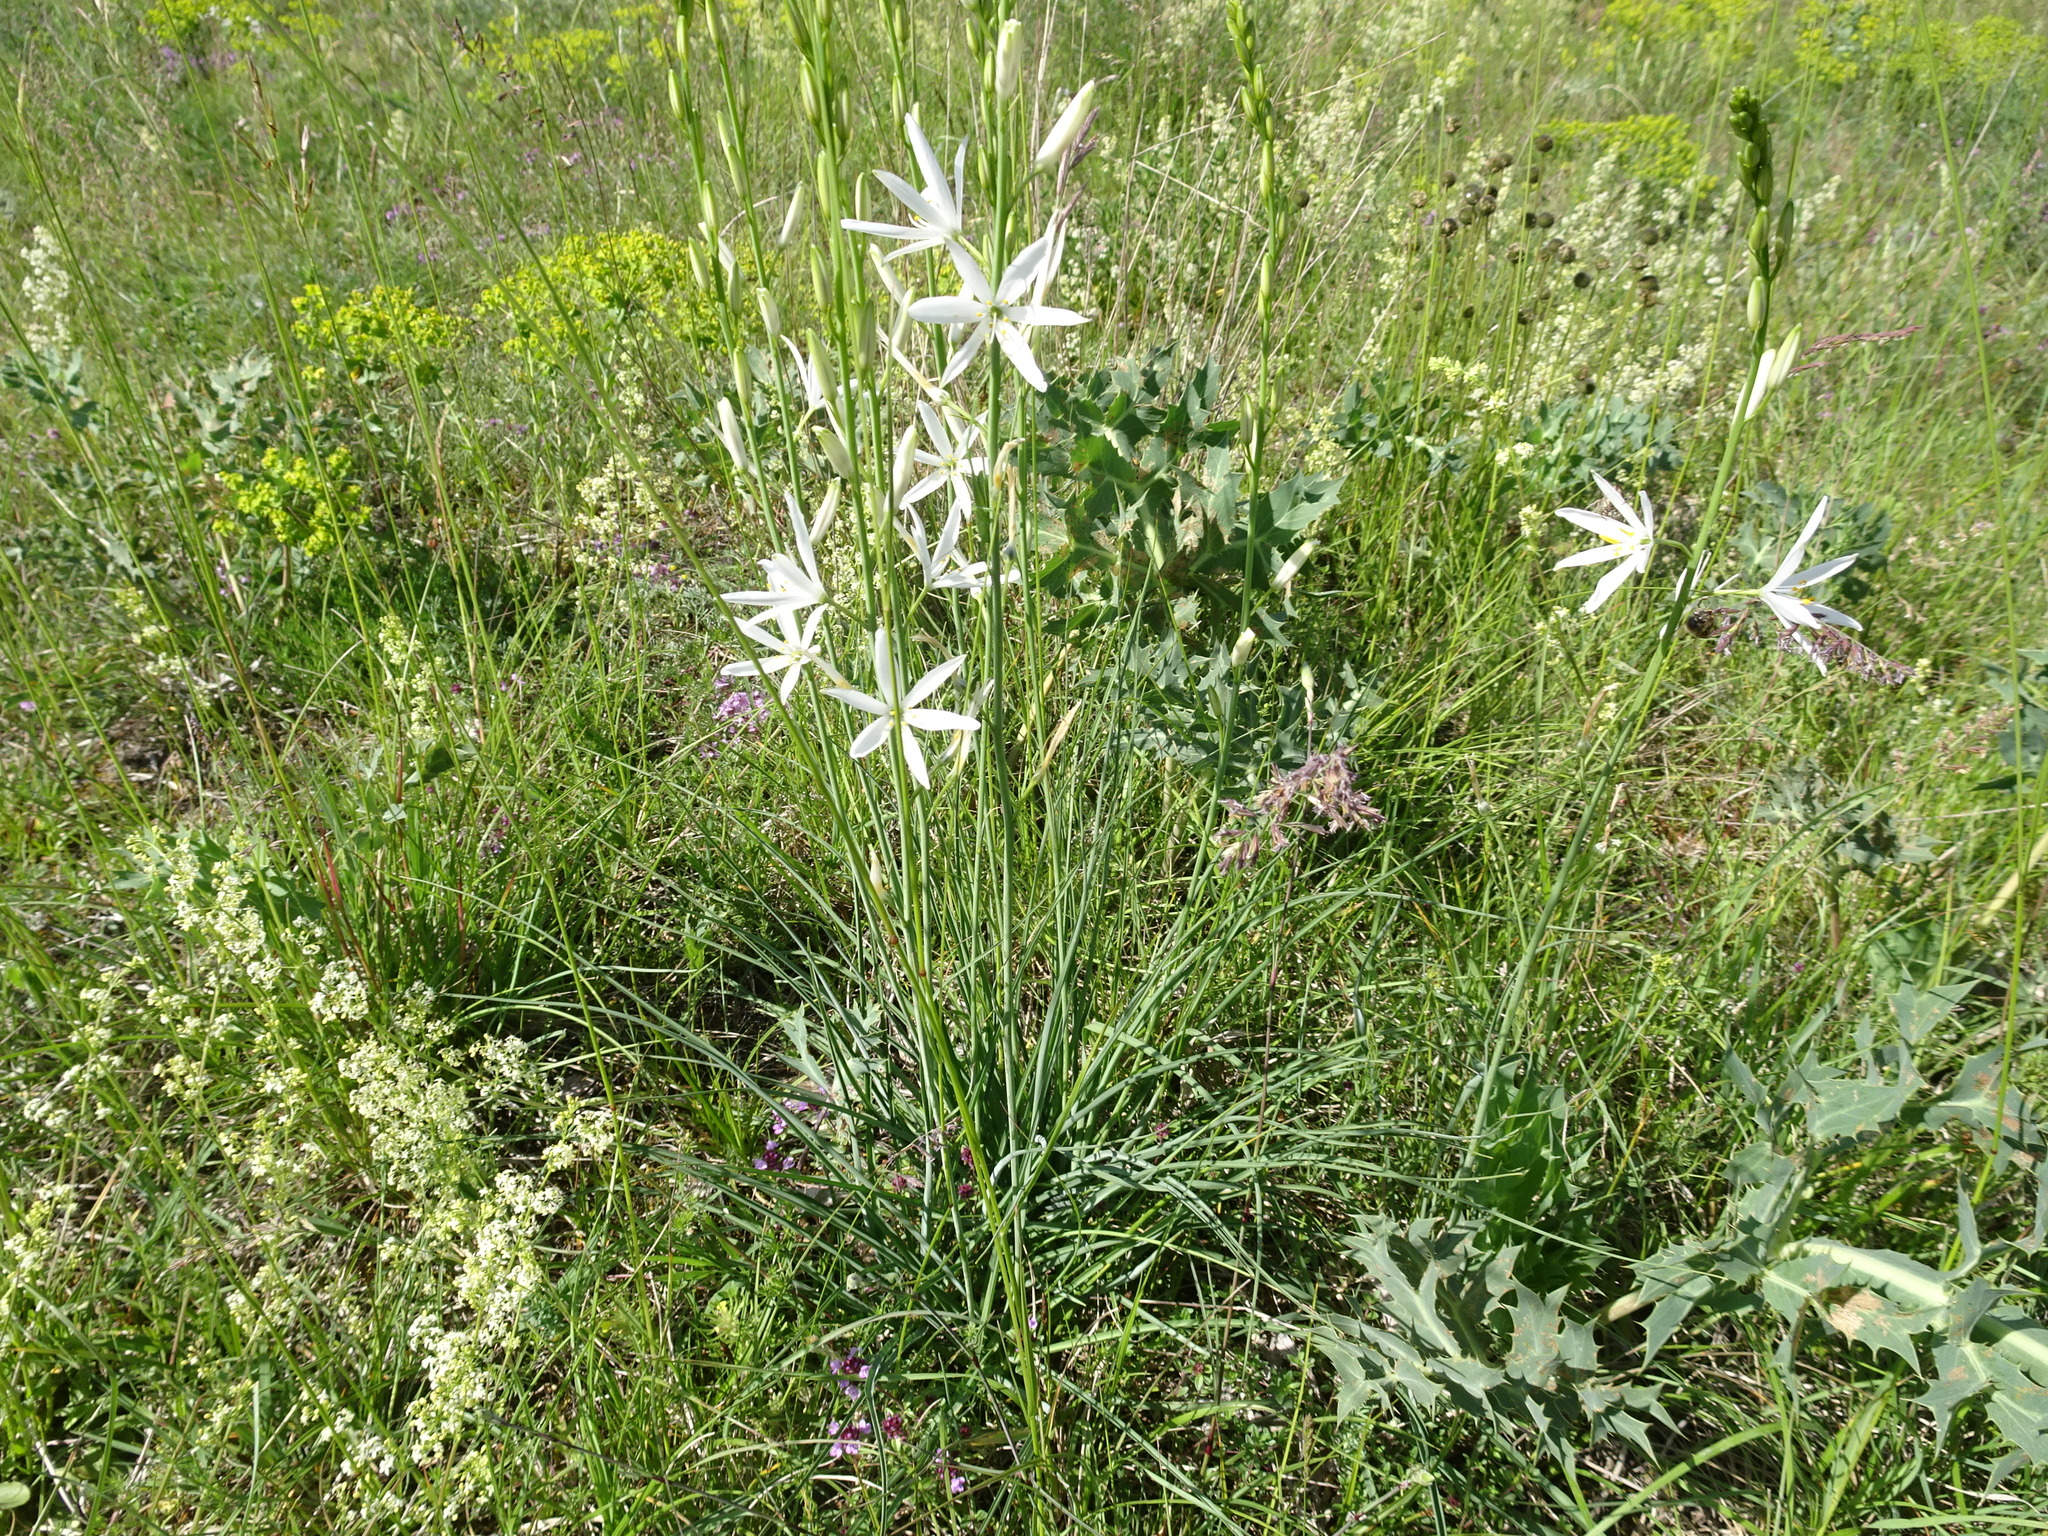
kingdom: Plantae
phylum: Tracheophyta
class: Liliopsida
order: Asparagales
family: Asparagaceae
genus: Anthericum
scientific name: Anthericum liliago
